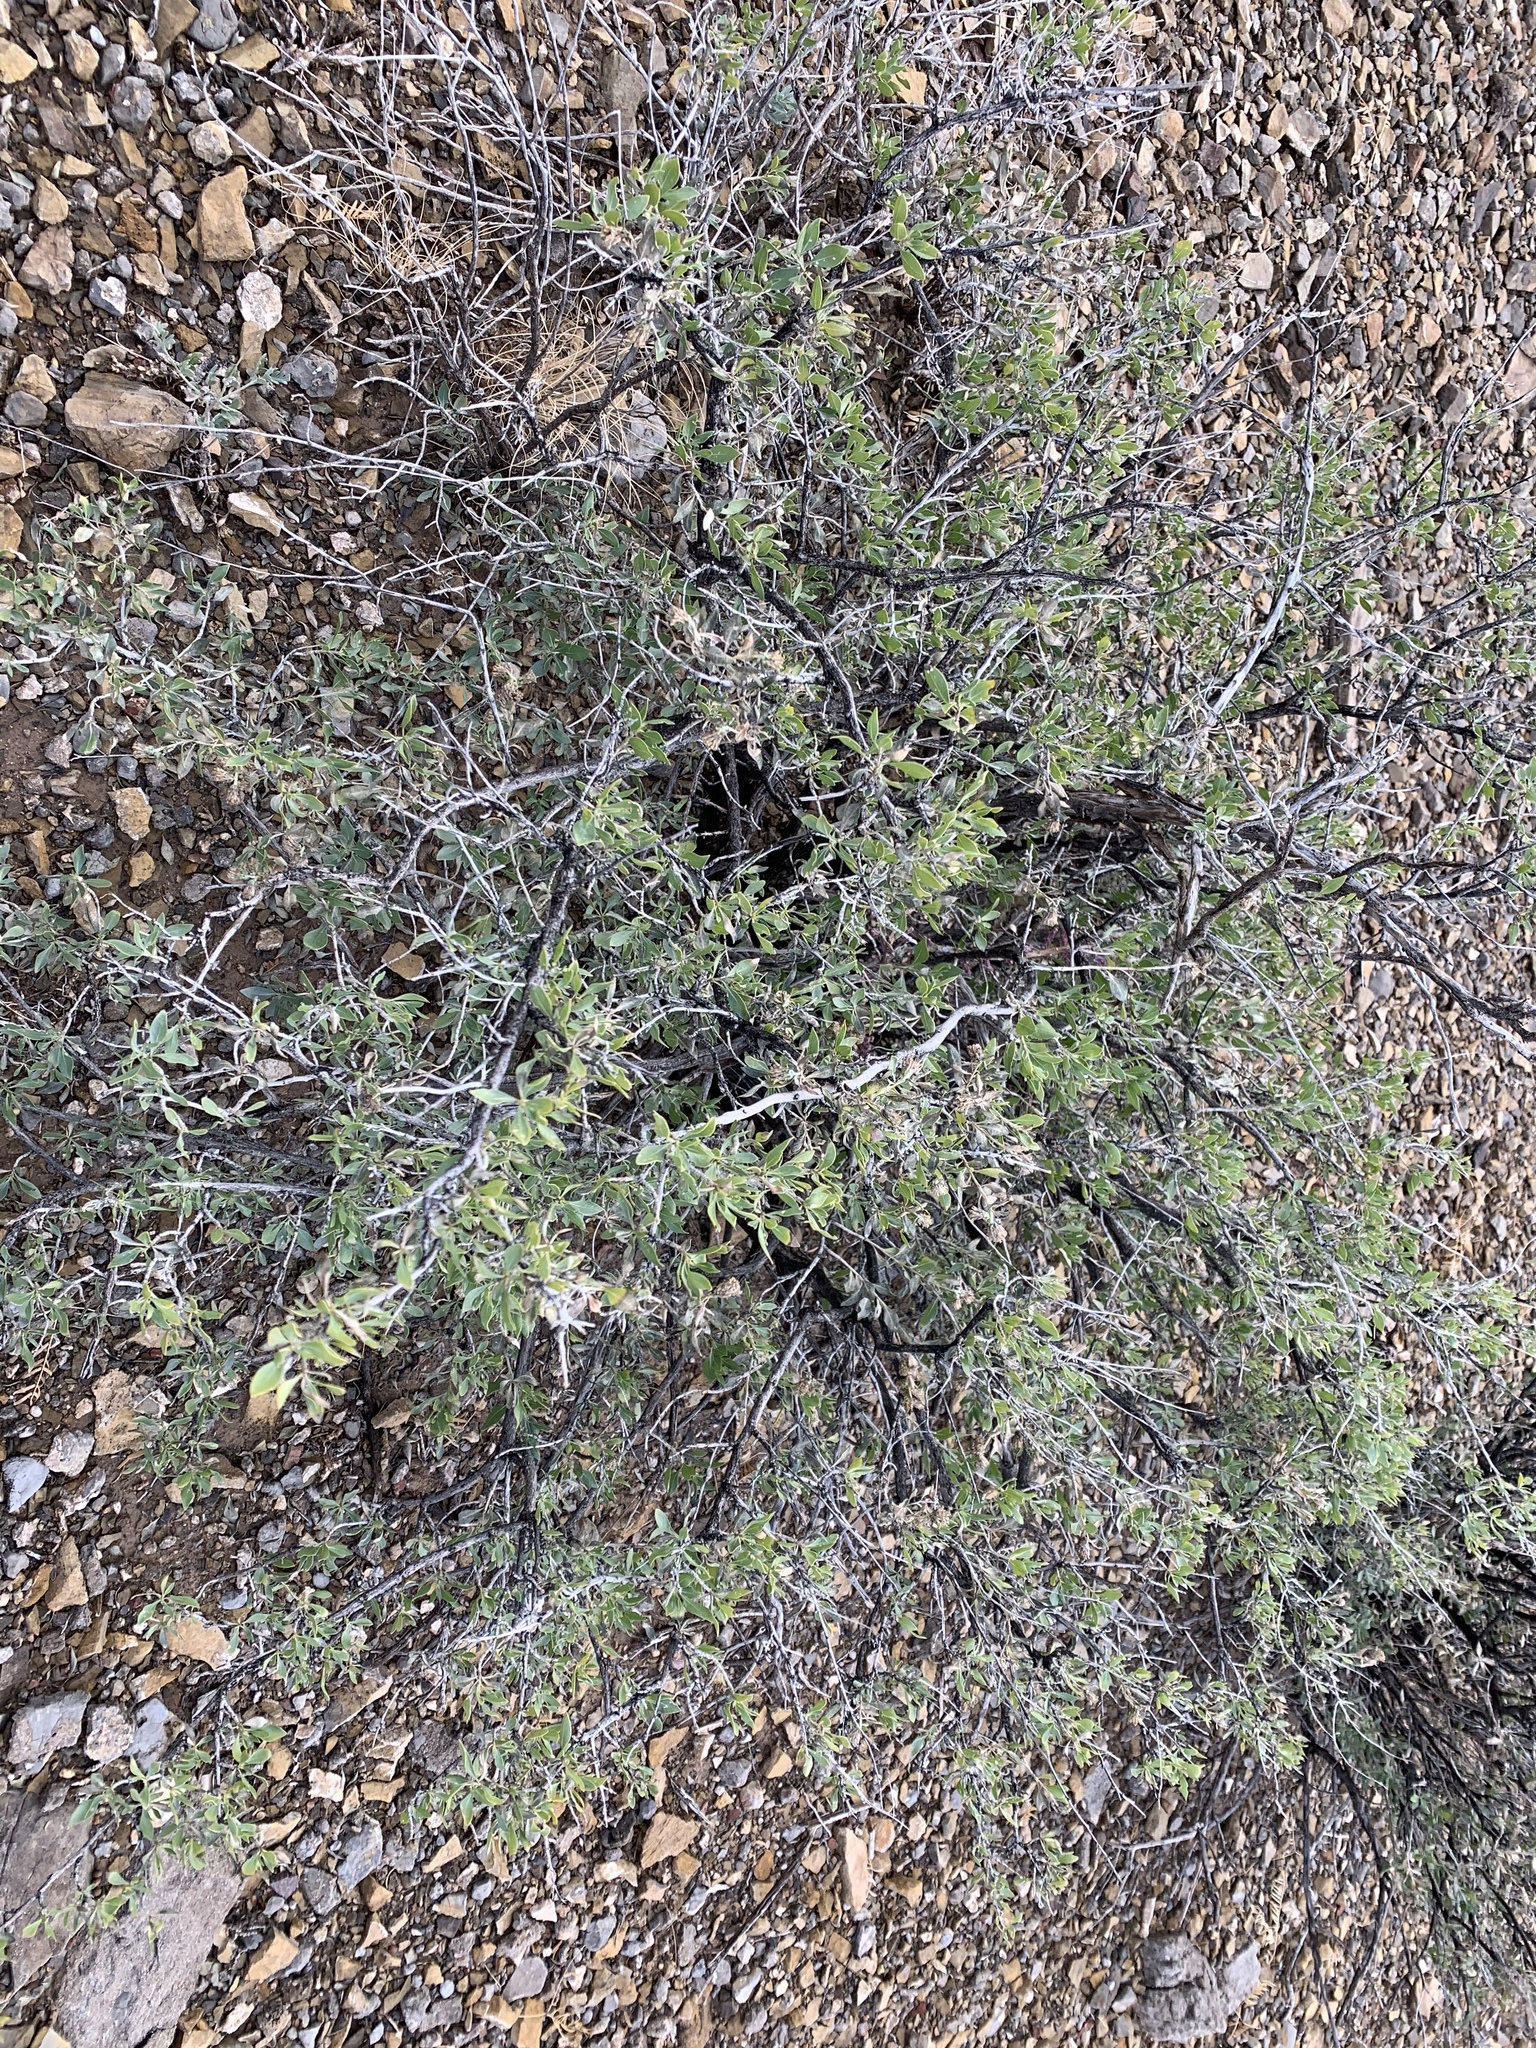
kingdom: Plantae
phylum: Tracheophyta
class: Magnoliopsida
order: Asterales
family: Asteraceae
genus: Flourensia
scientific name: Flourensia cernua
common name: Varnishbush
